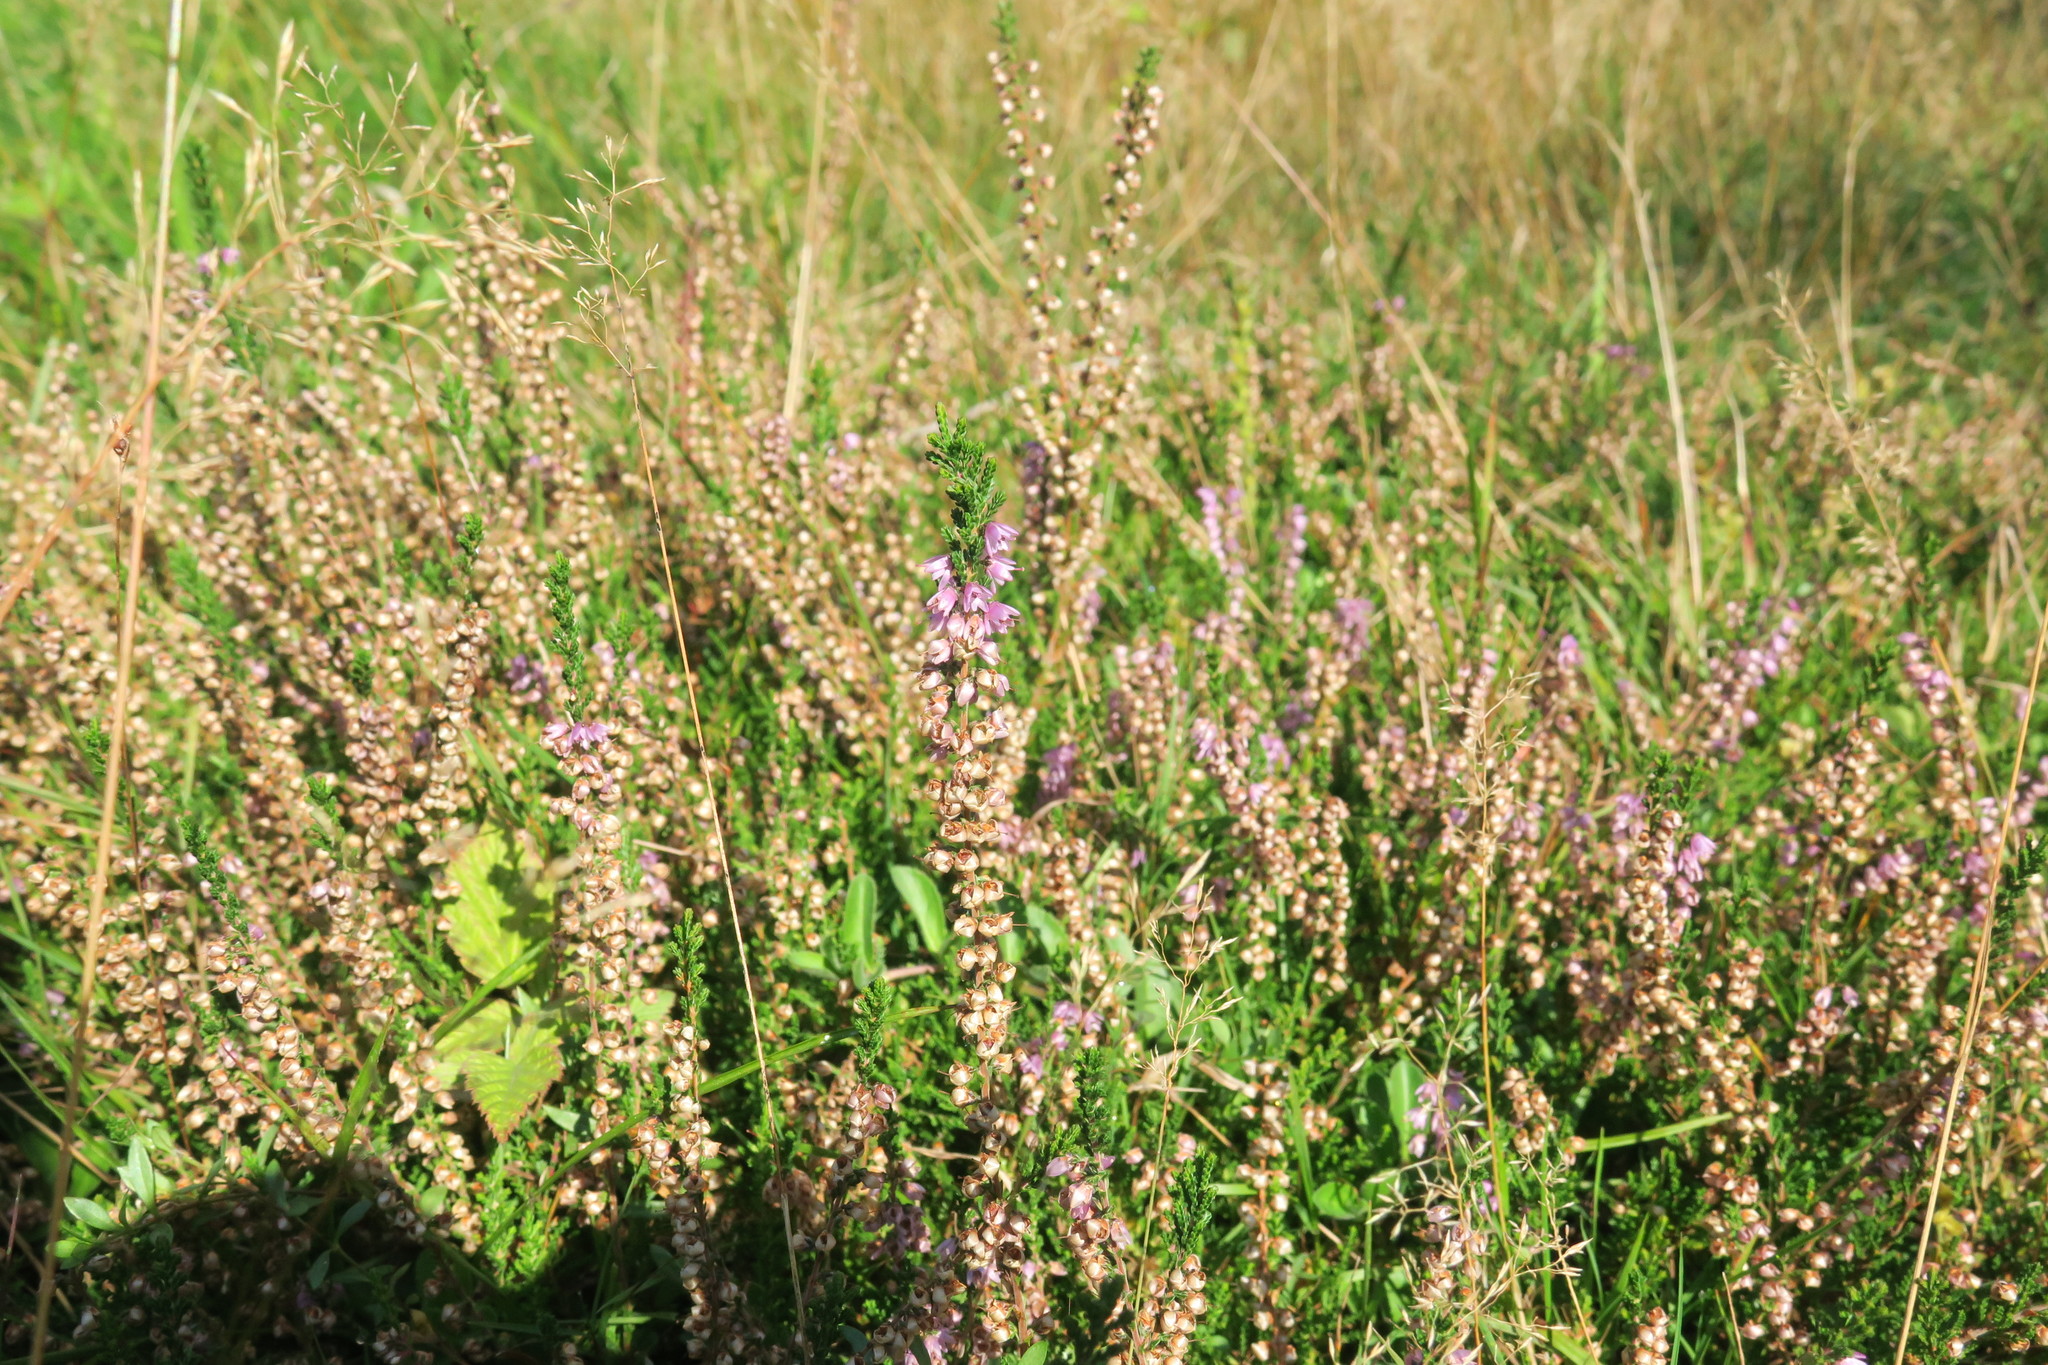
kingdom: Plantae
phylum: Tracheophyta
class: Magnoliopsida
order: Ericales
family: Ericaceae
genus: Calluna
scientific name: Calluna vulgaris
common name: Heather
